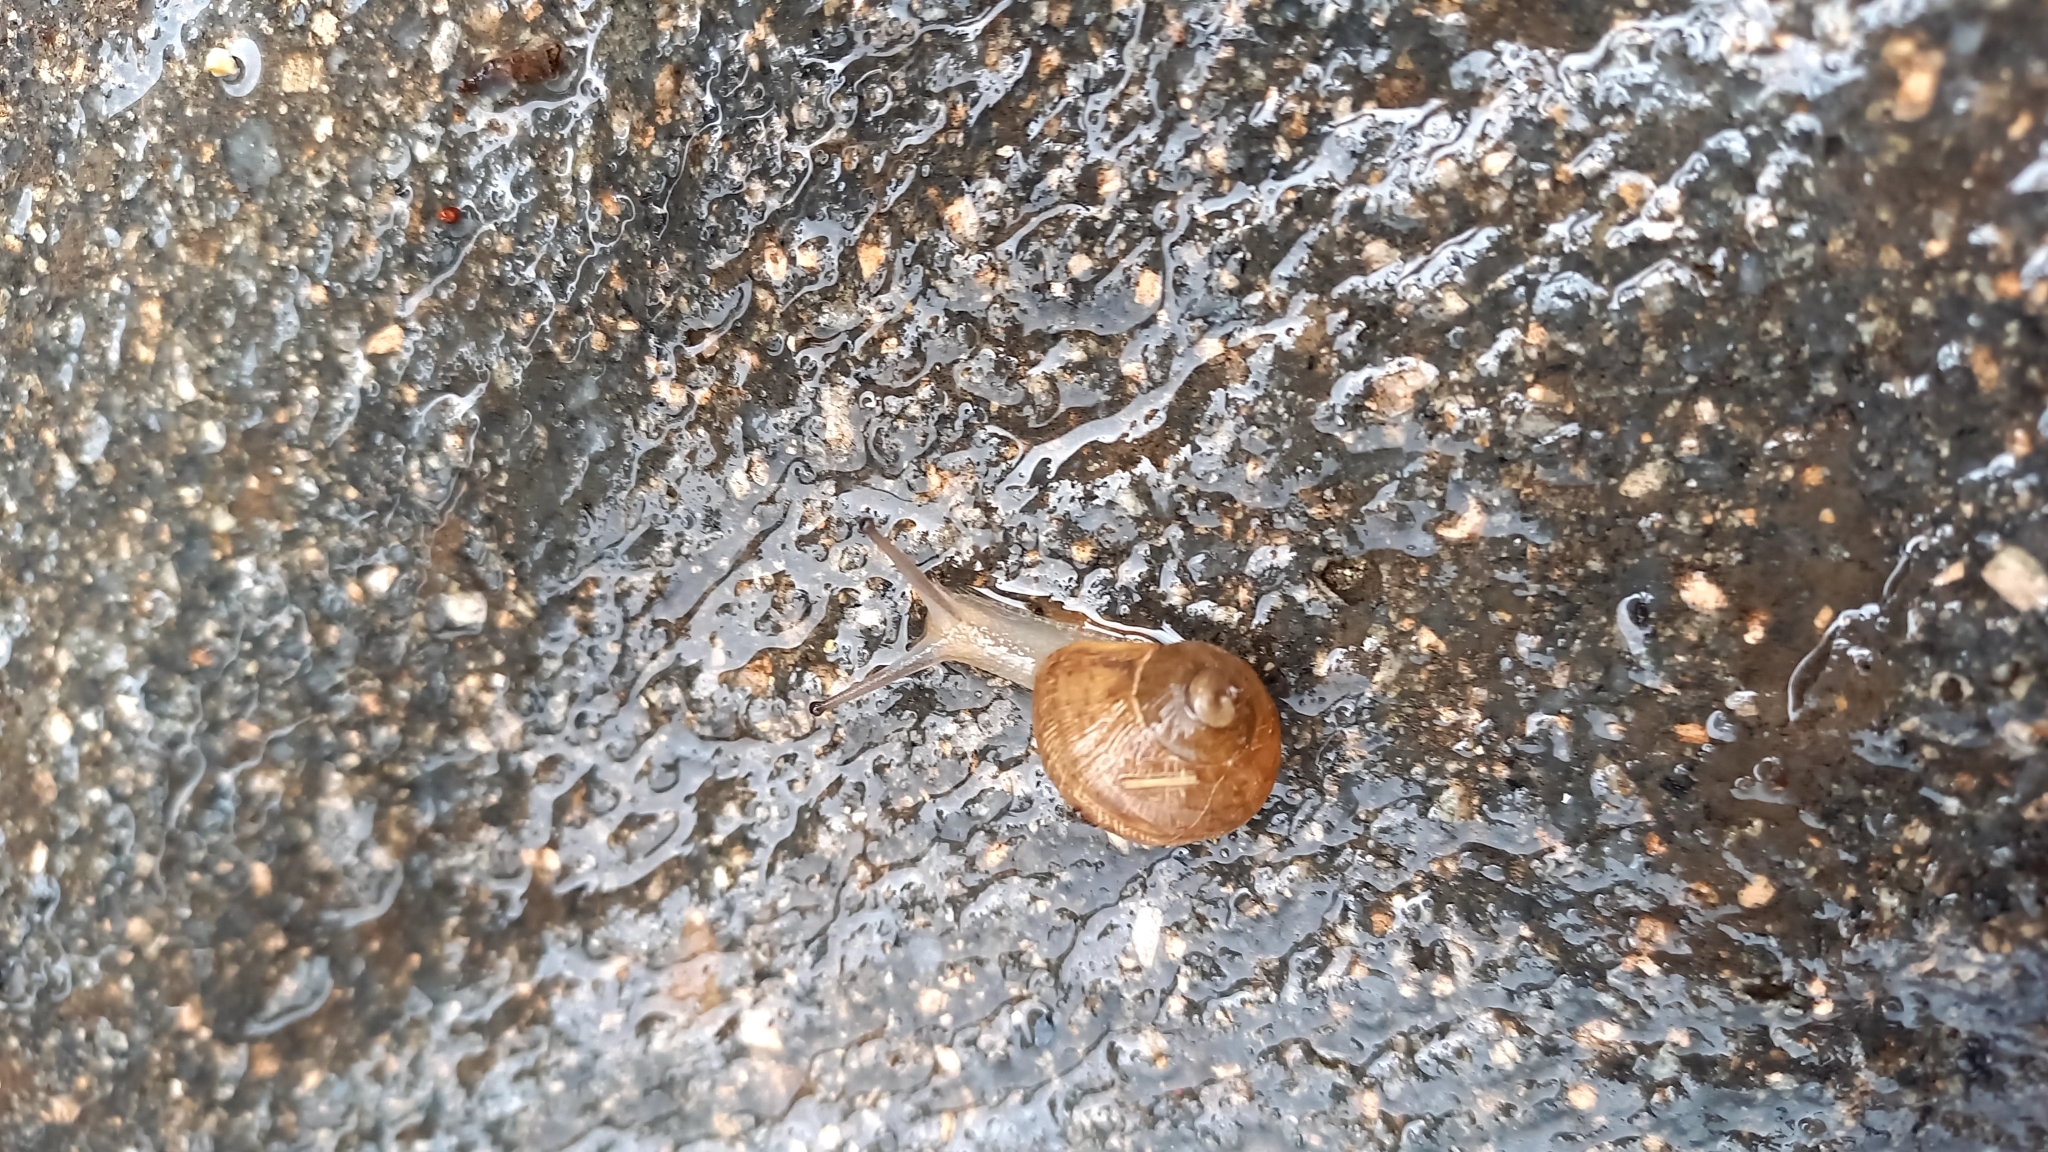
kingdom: Animalia
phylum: Mollusca
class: Gastropoda
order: Stylommatophora
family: Helicidae
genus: Cornu
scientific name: Cornu aspersum
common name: Brown garden snail
